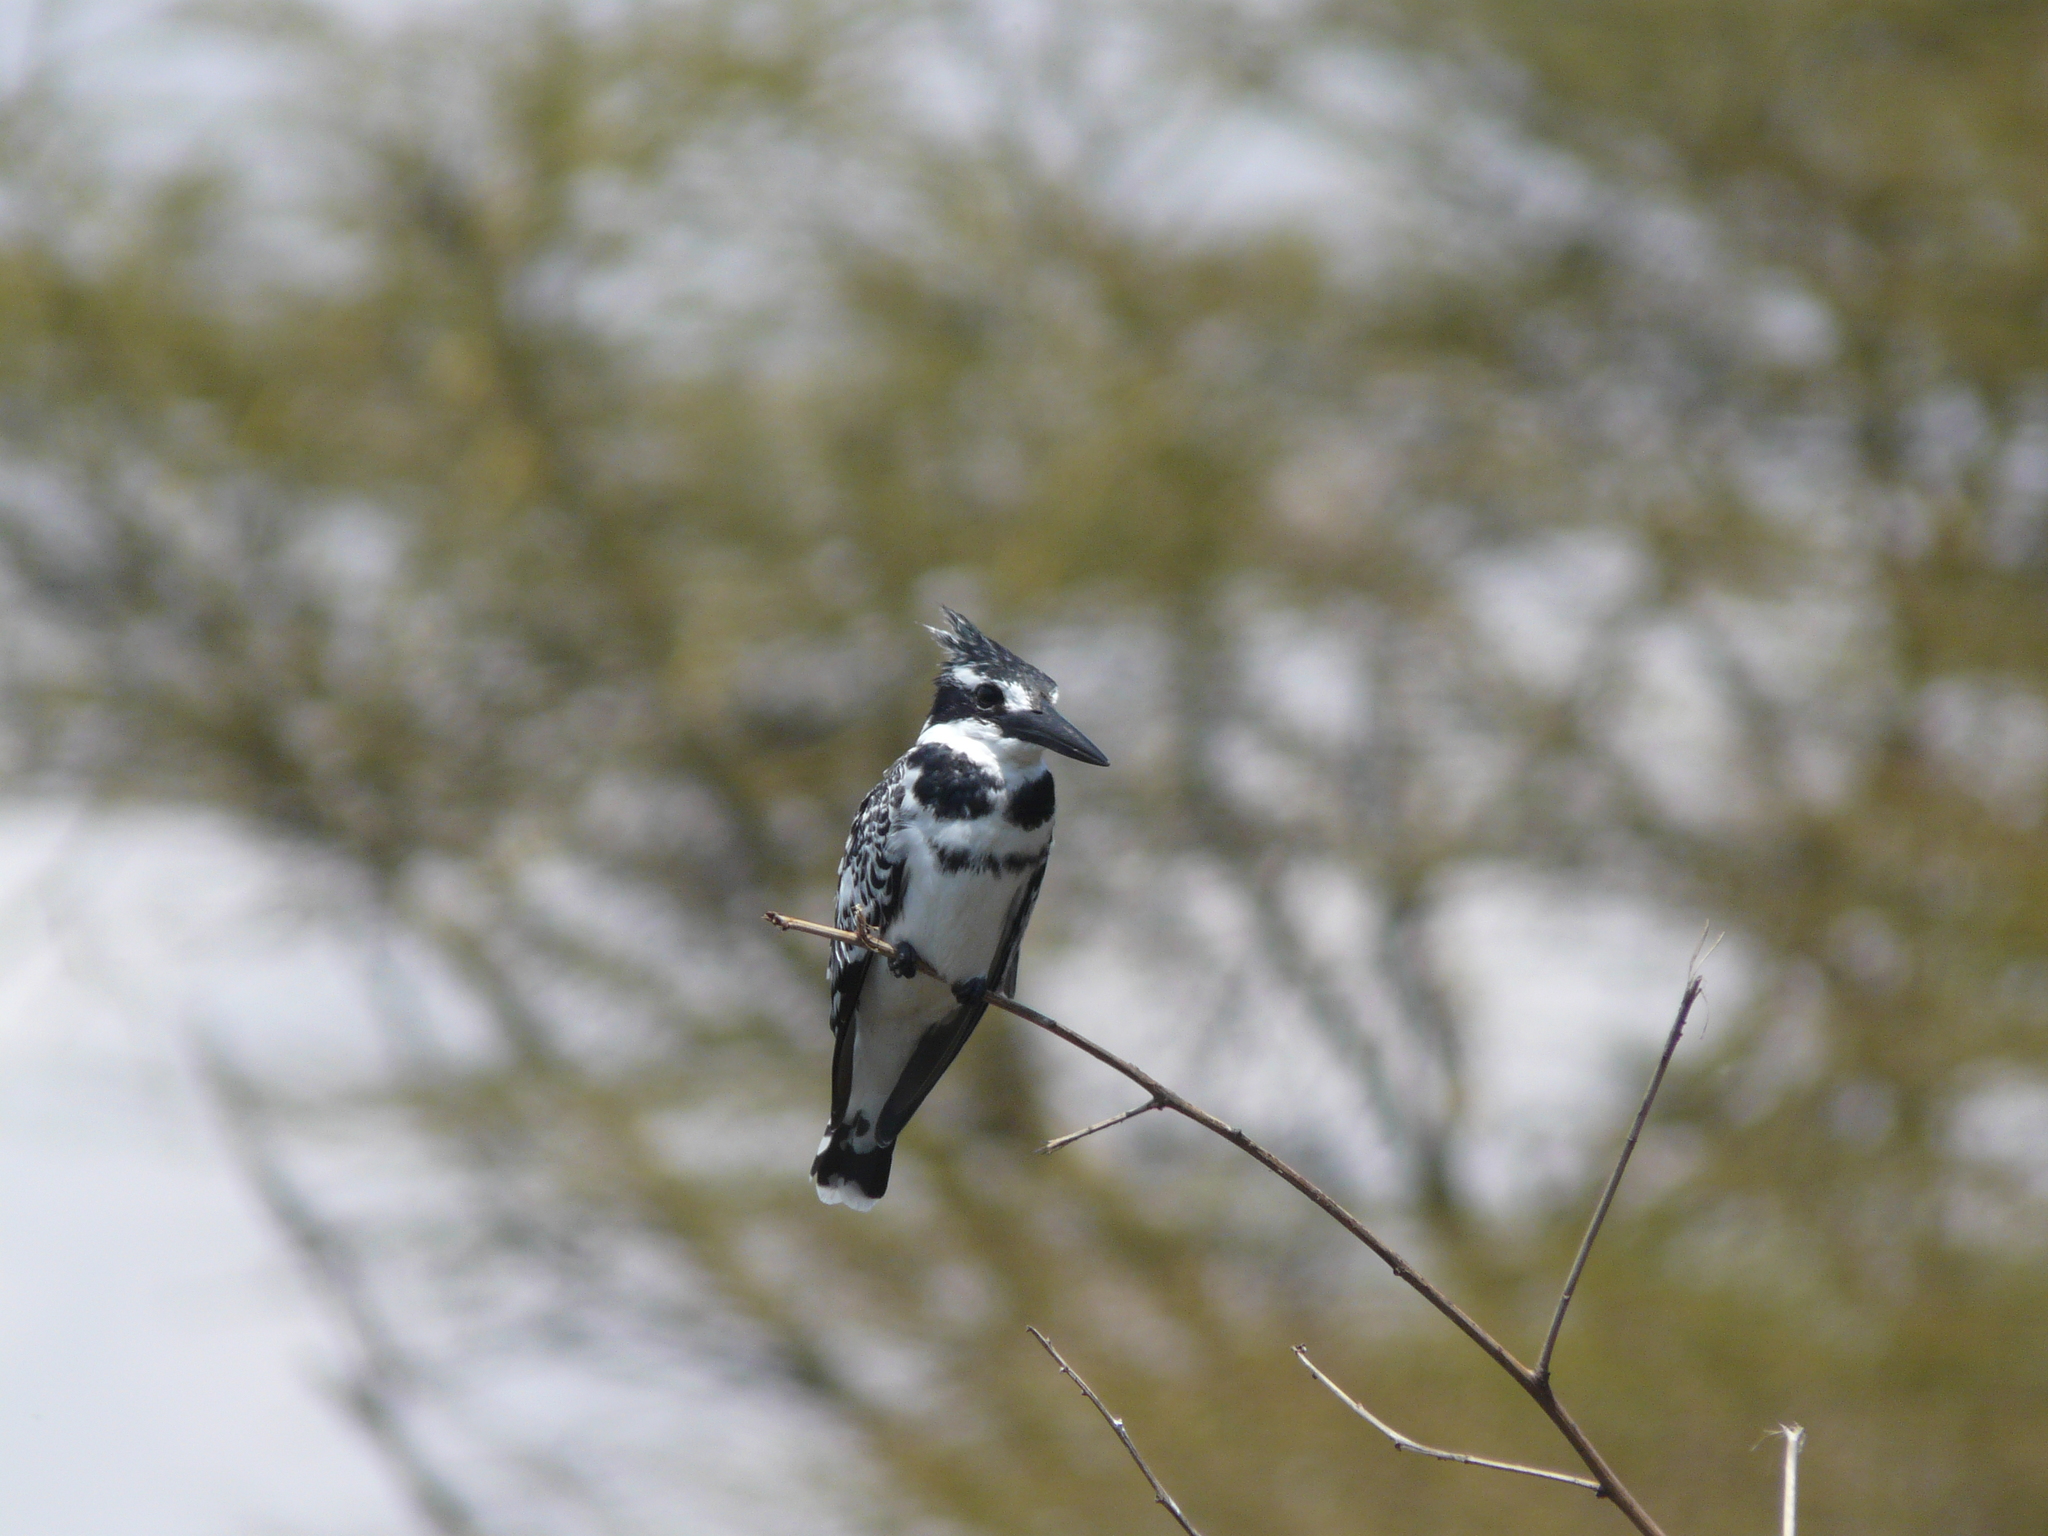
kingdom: Animalia
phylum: Chordata
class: Aves
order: Coraciiformes
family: Alcedinidae
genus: Ceryle
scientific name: Ceryle rudis
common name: Pied kingfisher
